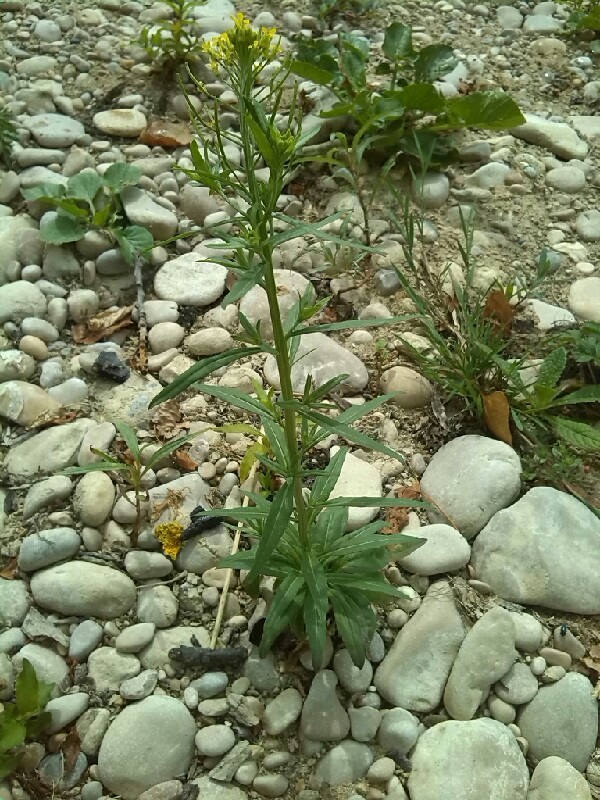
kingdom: Plantae
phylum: Tracheophyta
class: Magnoliopsida
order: Brassicales
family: Brassicaceae
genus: Erysimum
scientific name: Erysimum cheiranthoides
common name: Treacle mustard
